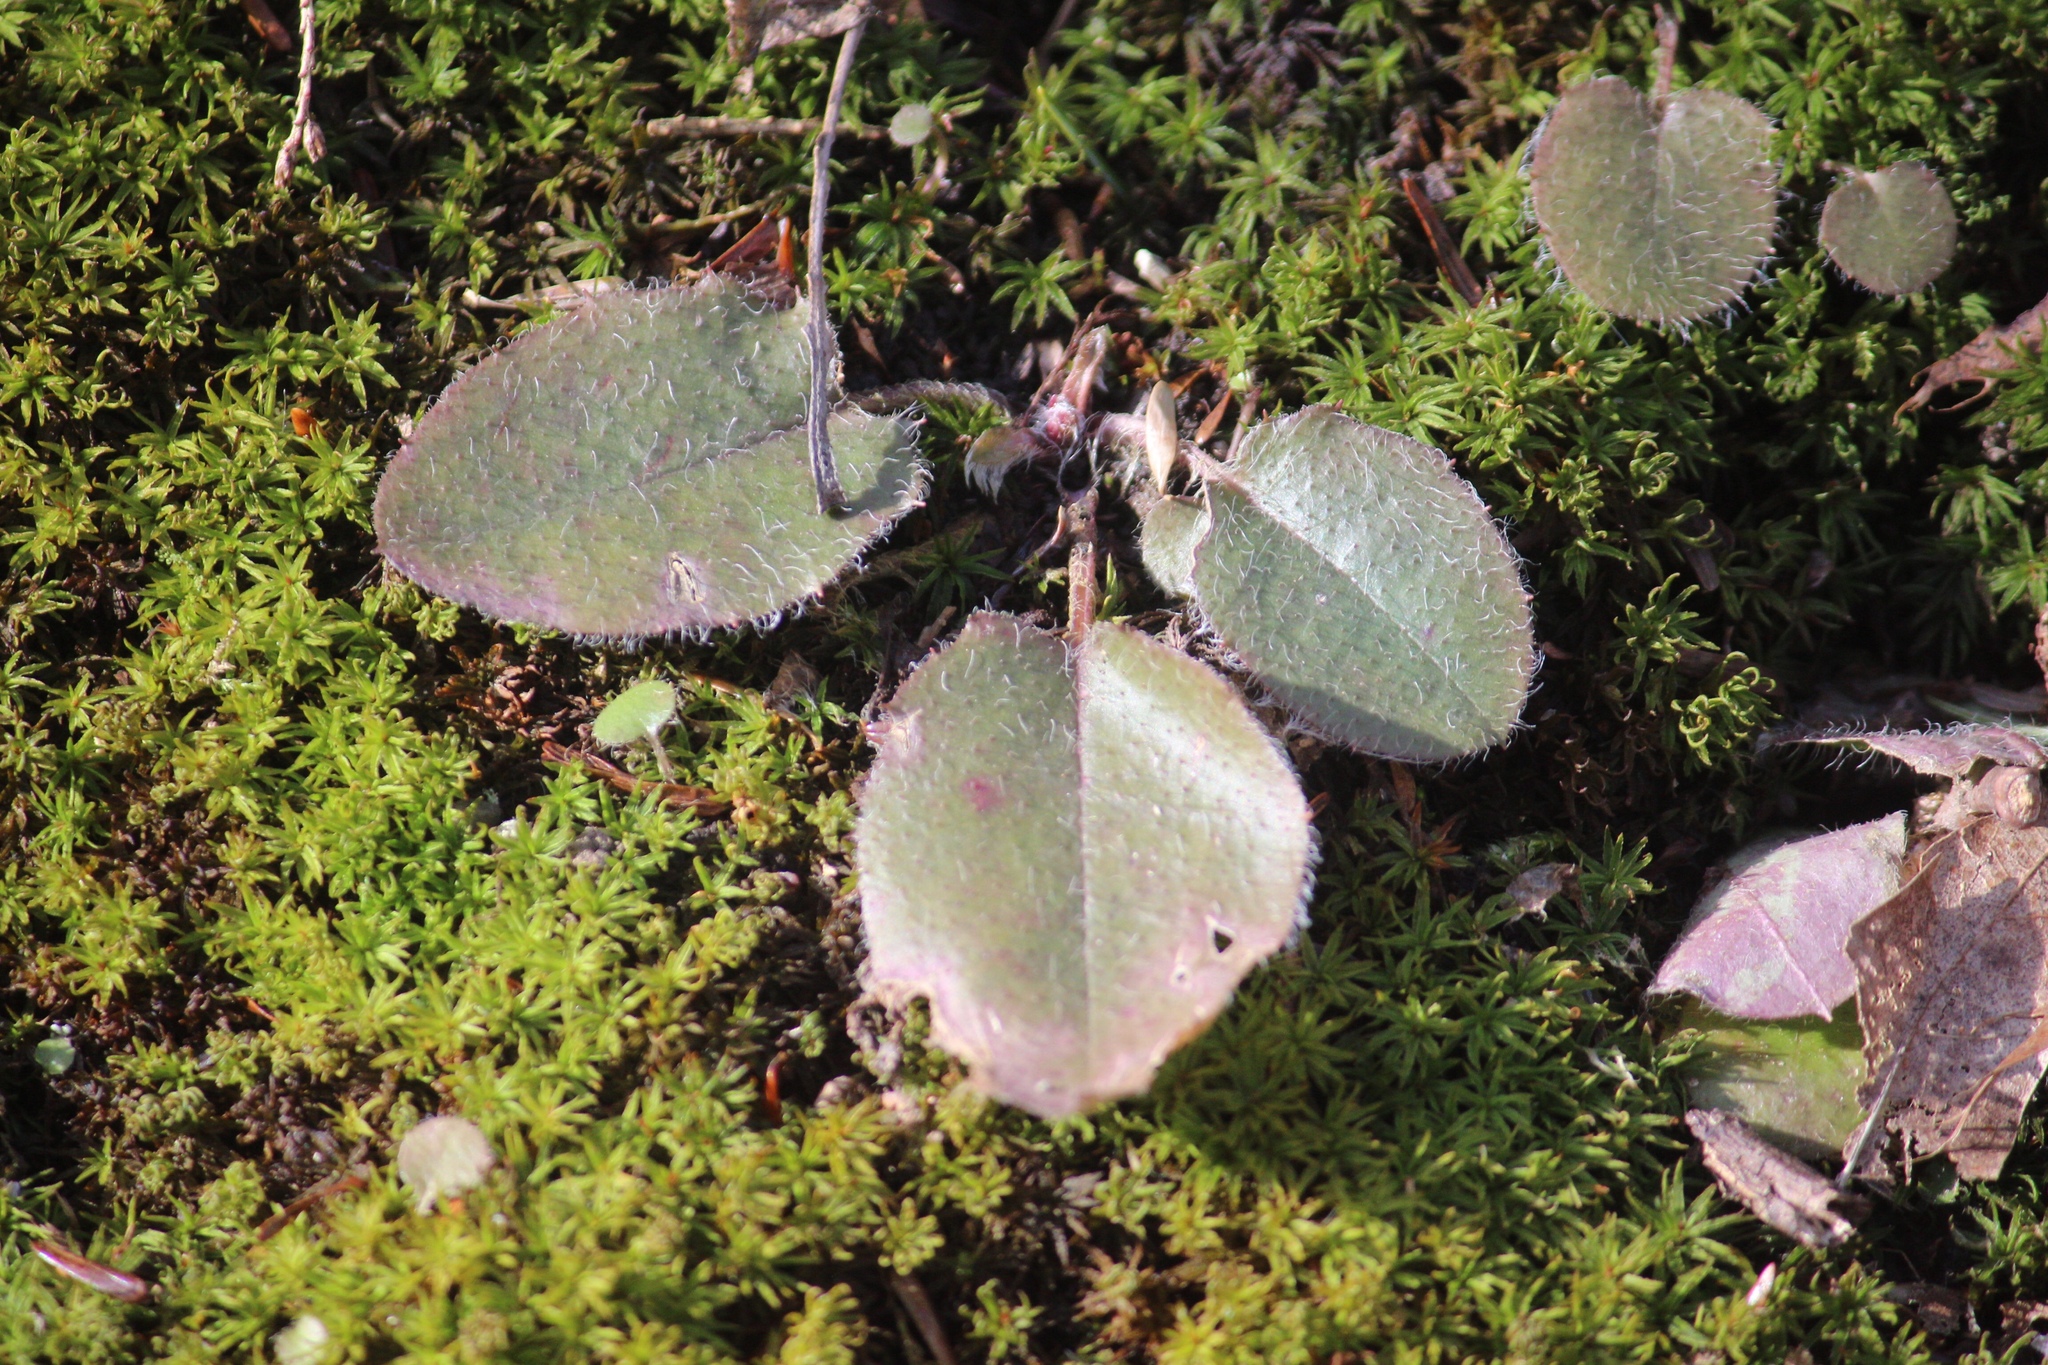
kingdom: Plantae
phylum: Tracheophyta
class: Magnoliopsida
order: Ericales
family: Ericaceae
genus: Epigaea
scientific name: Epigaea repens
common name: Gravelroot
